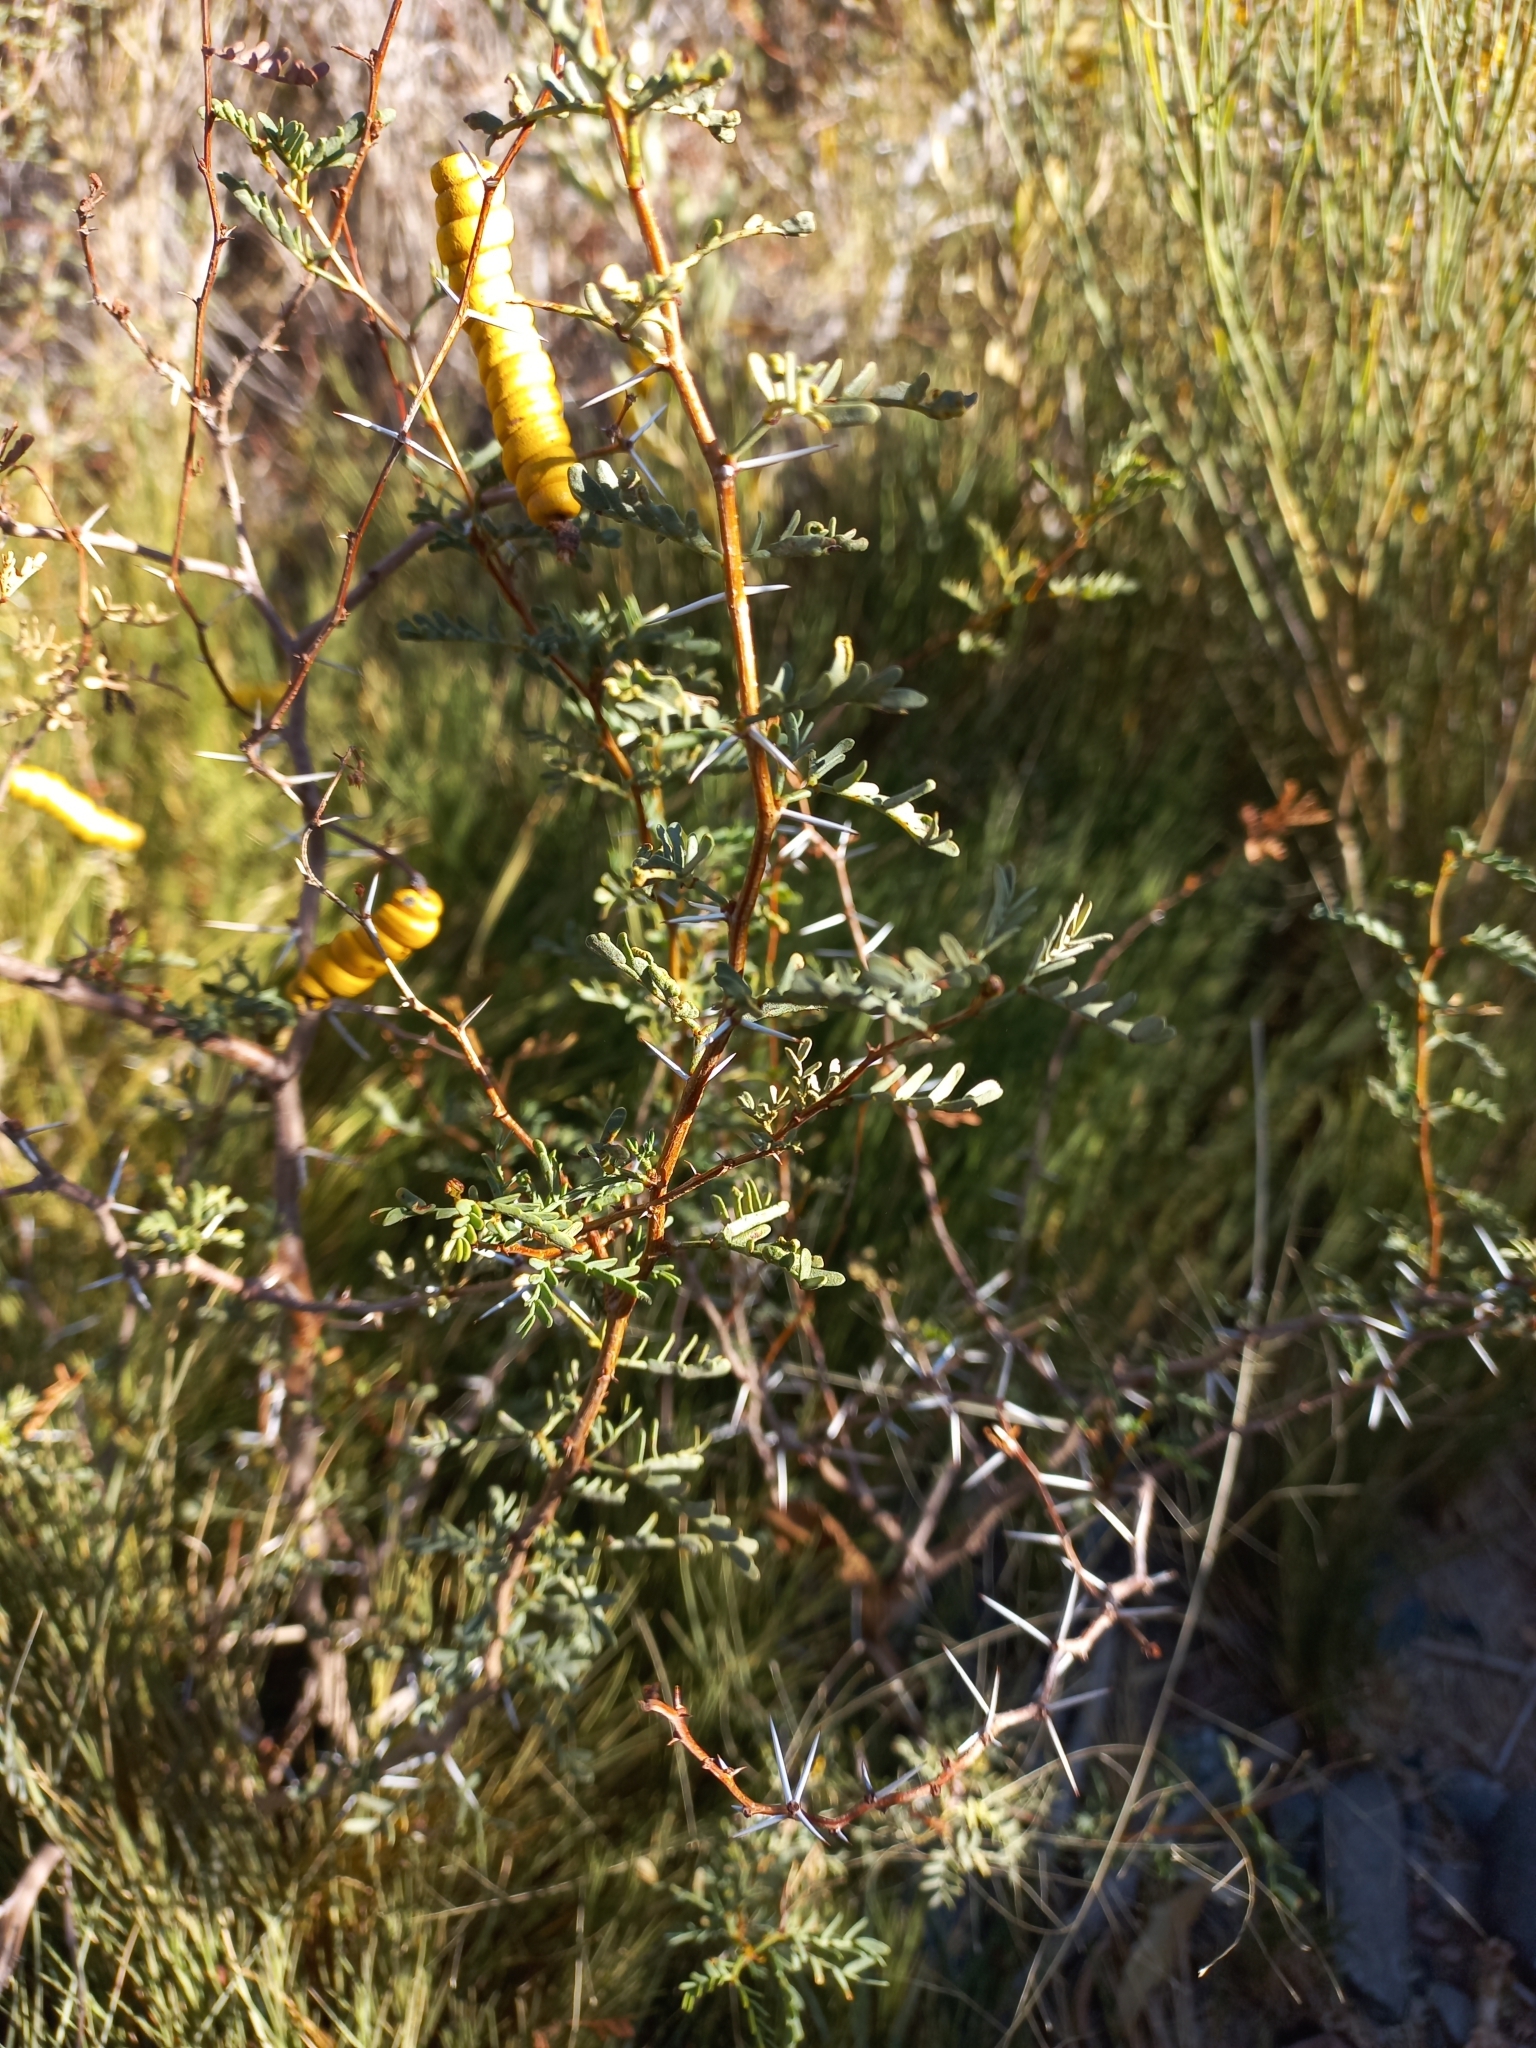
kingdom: Plantae
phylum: Tracheophyta
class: Magnoliopsida
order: Fabales
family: Fabaceae
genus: Prosopis
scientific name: Prosopis strombulifera
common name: Creeping mesquite
